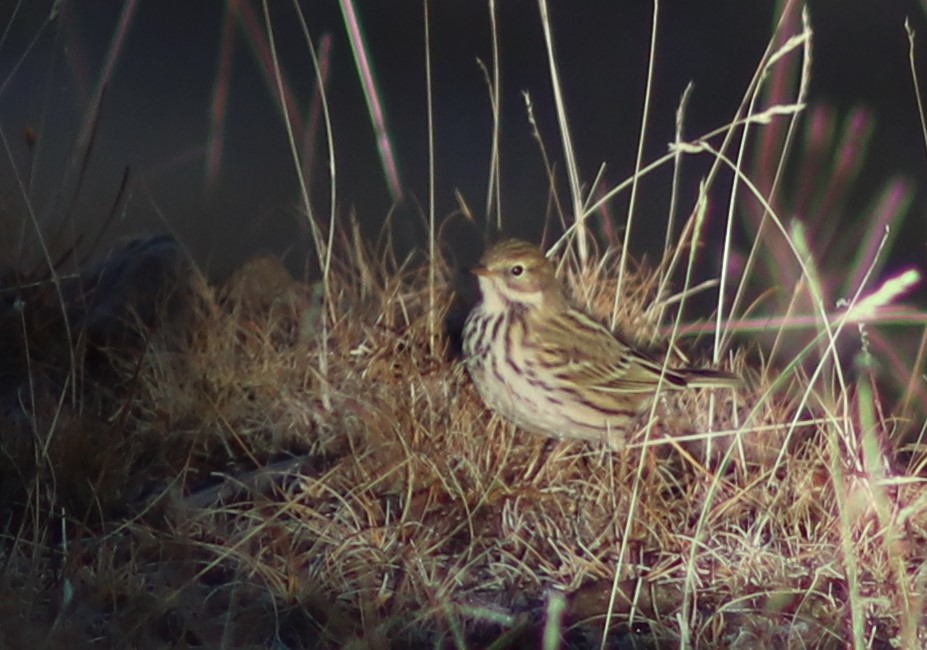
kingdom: Animalia
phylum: Chordata
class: Aves
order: Passeriformes
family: Motacillidae
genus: Anthus
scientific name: Anthus pratensis
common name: Meadow pipit
